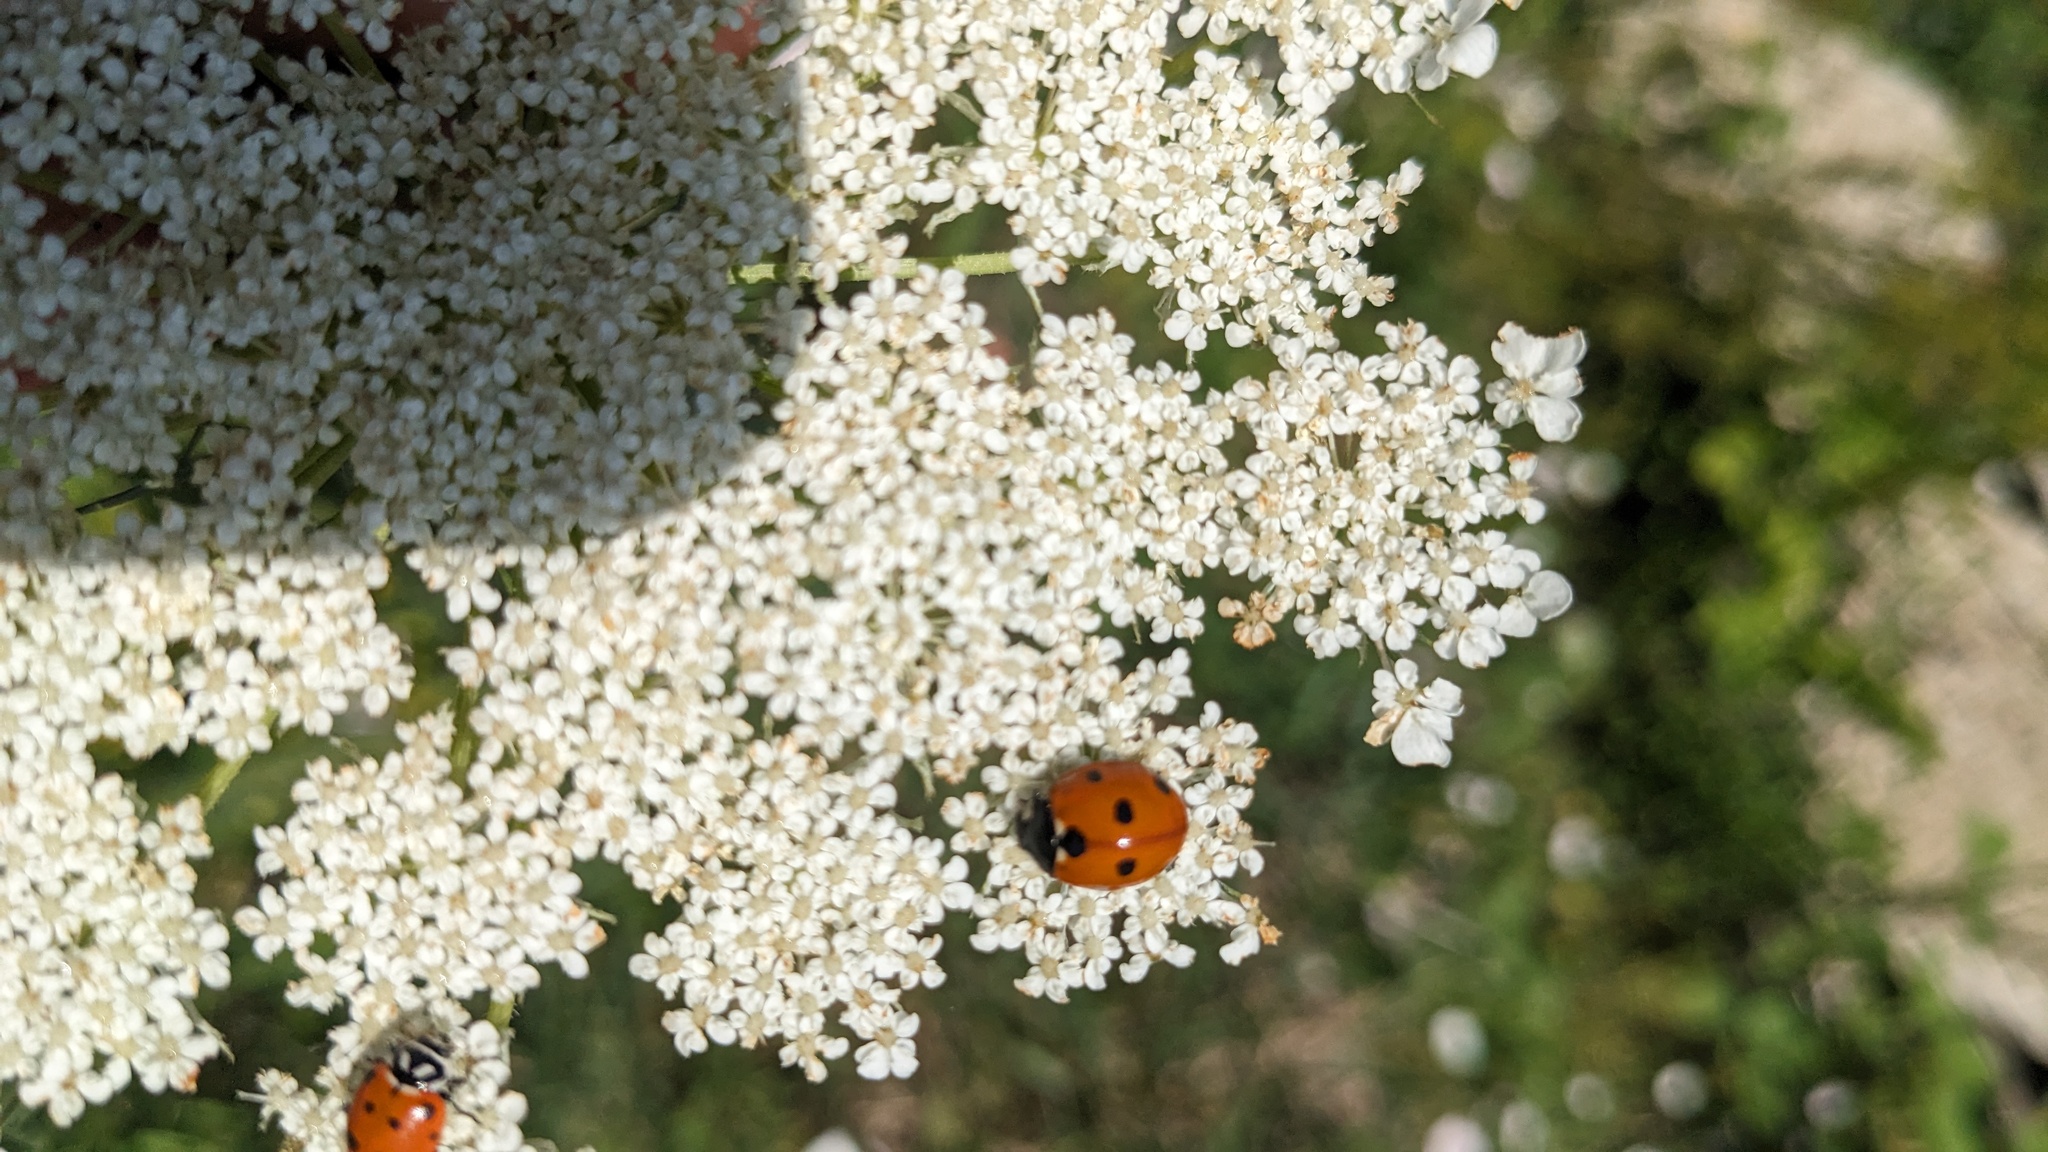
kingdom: Animalia
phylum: Arthropoda
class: Insecta
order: Coleoptera
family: Coccinellidae
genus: Coccinella
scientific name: Coccinella septempunctata
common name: Sevenspotted lady beetle
